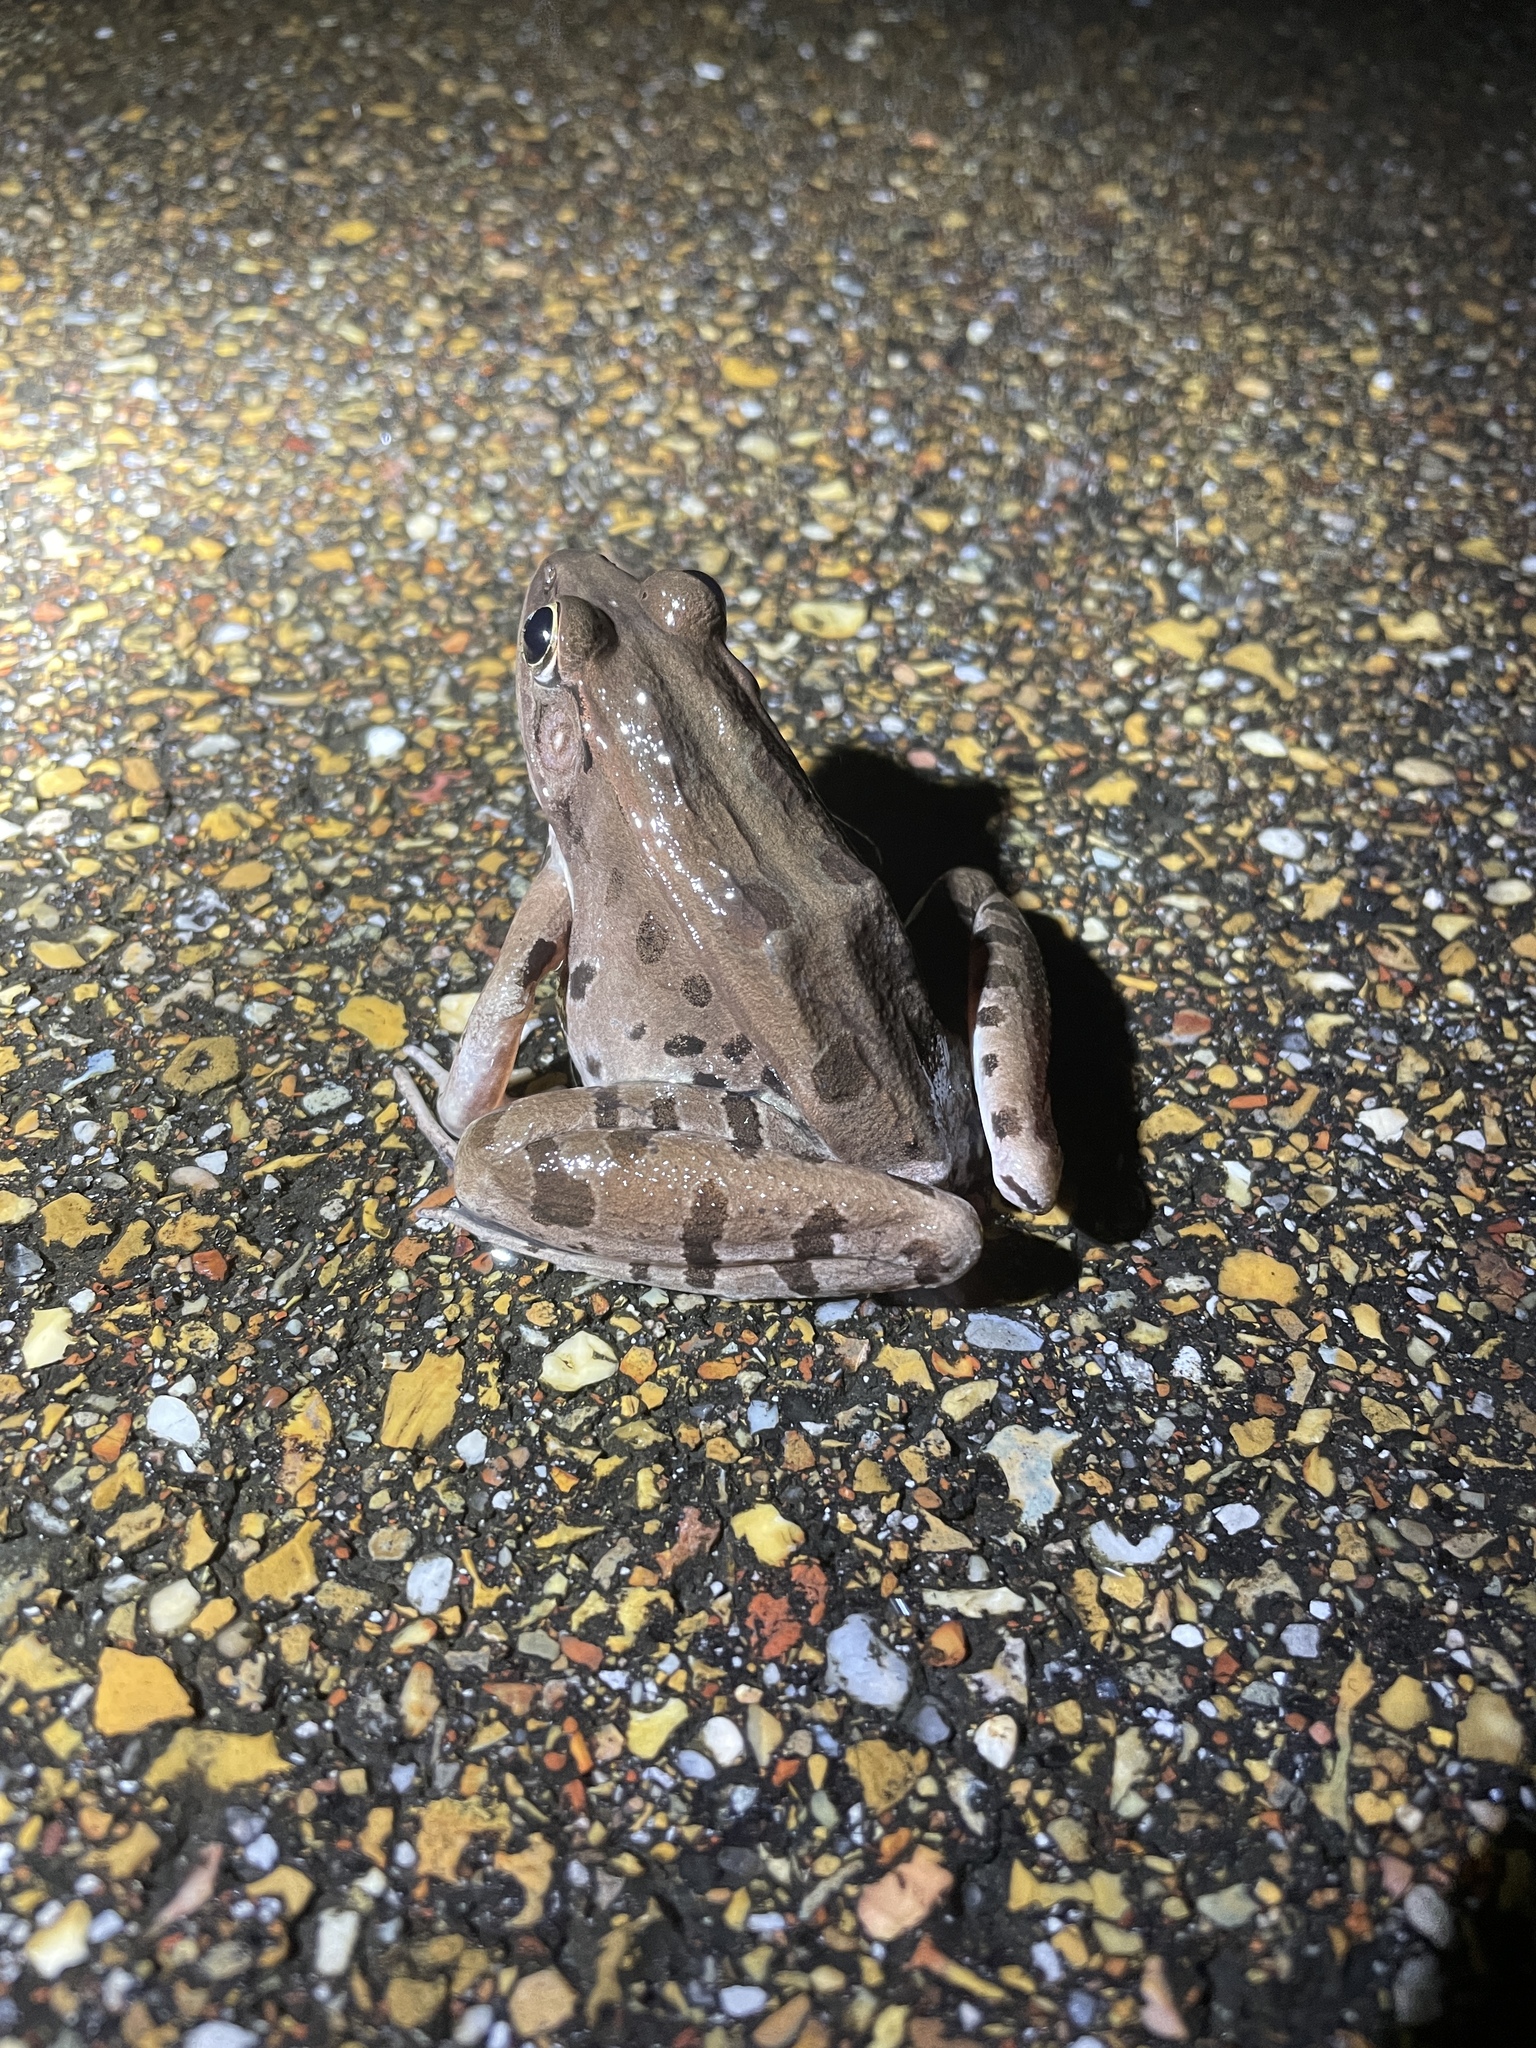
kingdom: Animalia
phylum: Chordata
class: Amphibia
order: Anura
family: Ranidae
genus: Lithobates
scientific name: Lithobates sphenocephalus
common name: Southern leopard frog
